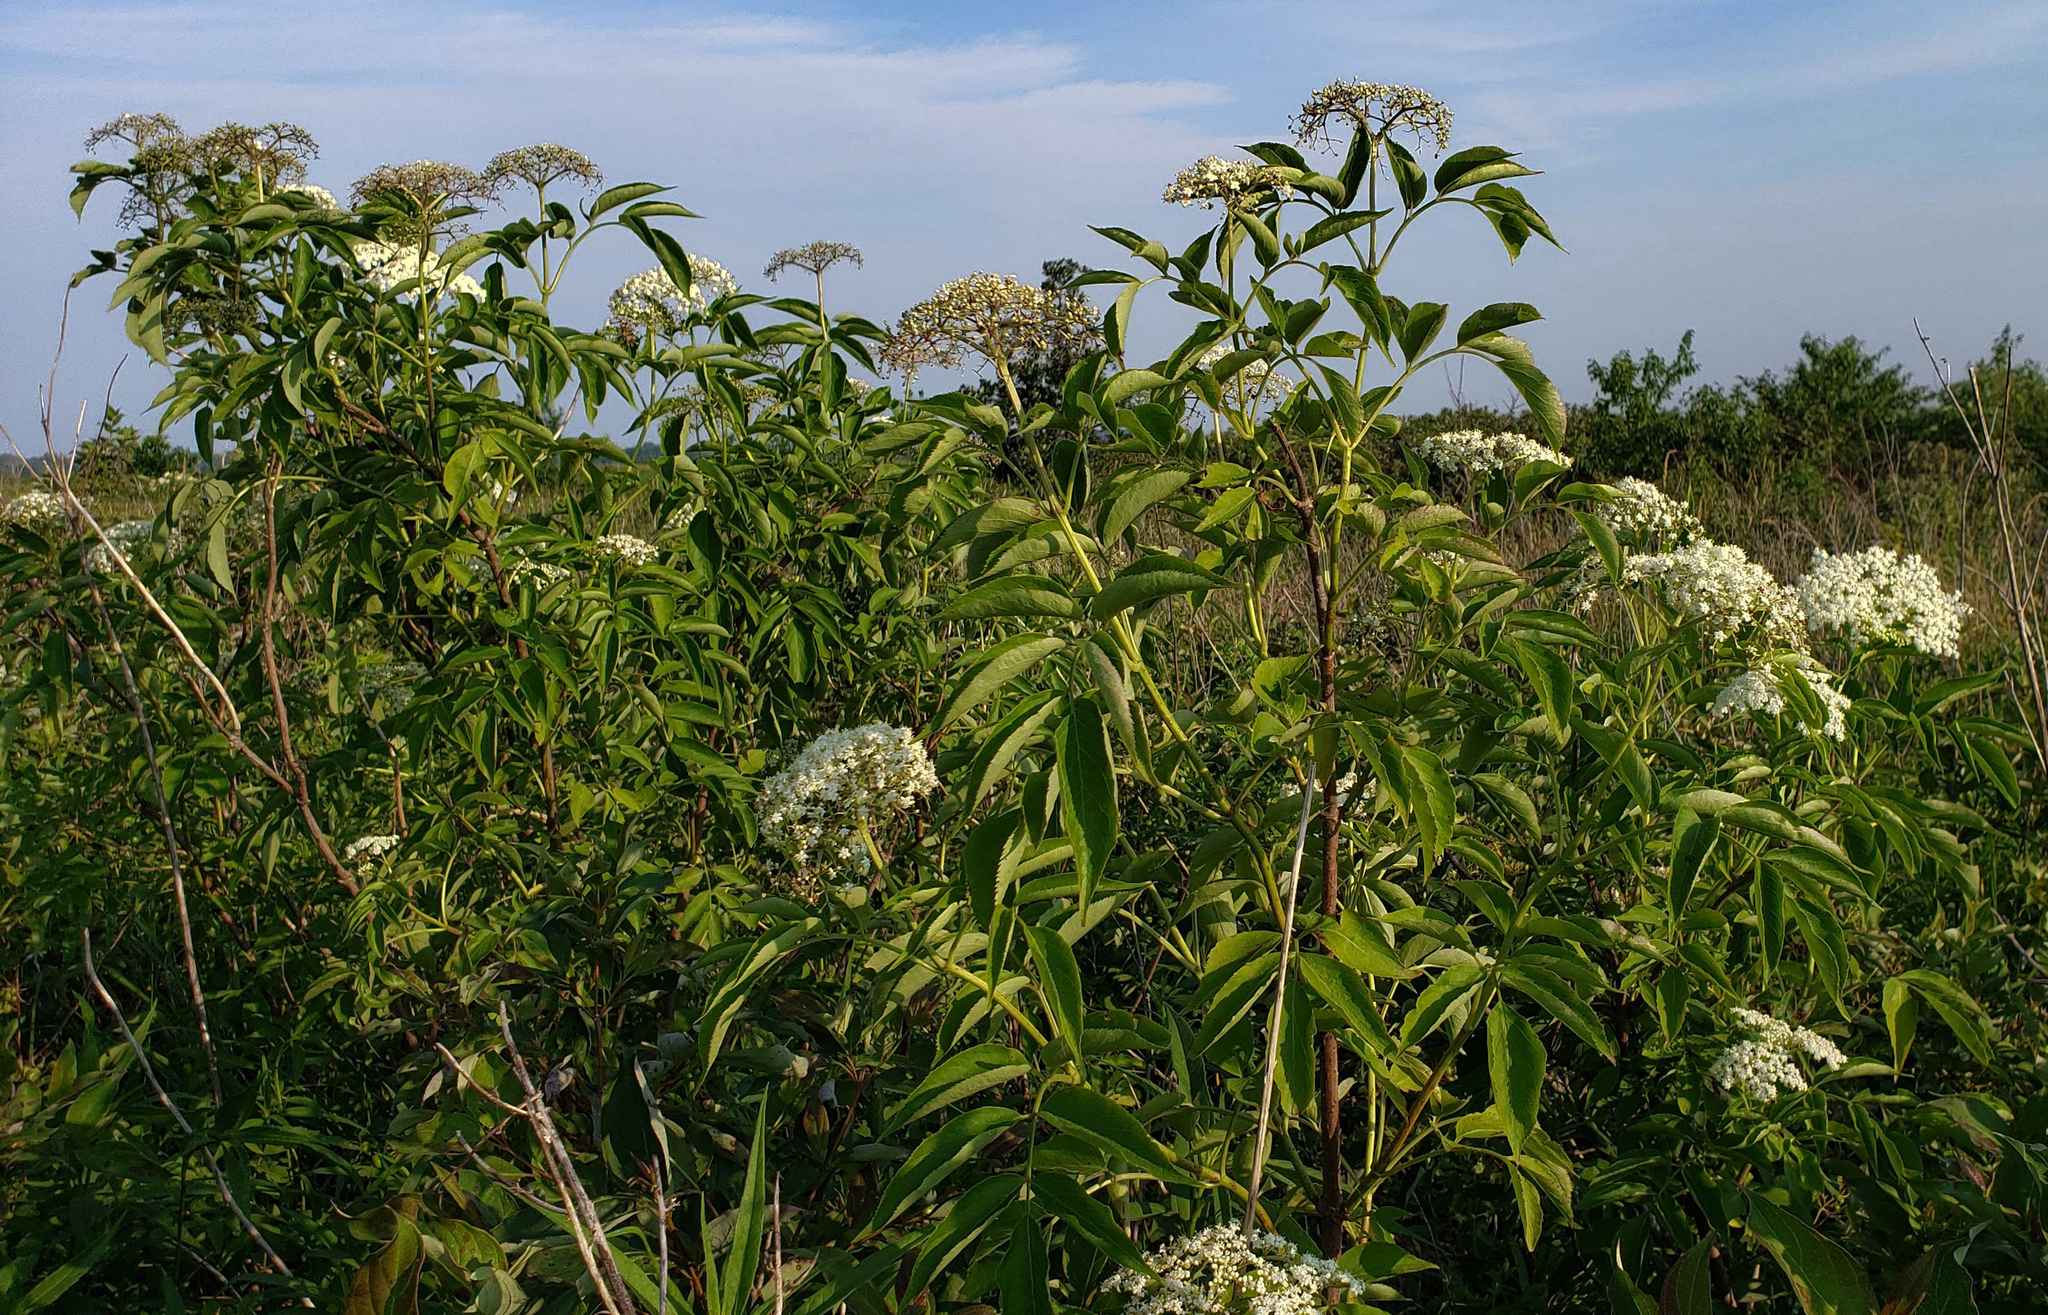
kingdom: Plantae
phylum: Tracheophyta
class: Magnoliopsida
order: Dipsacales
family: Viburnaceae
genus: Sambucus
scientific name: Sambucus canadensis
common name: American elder
